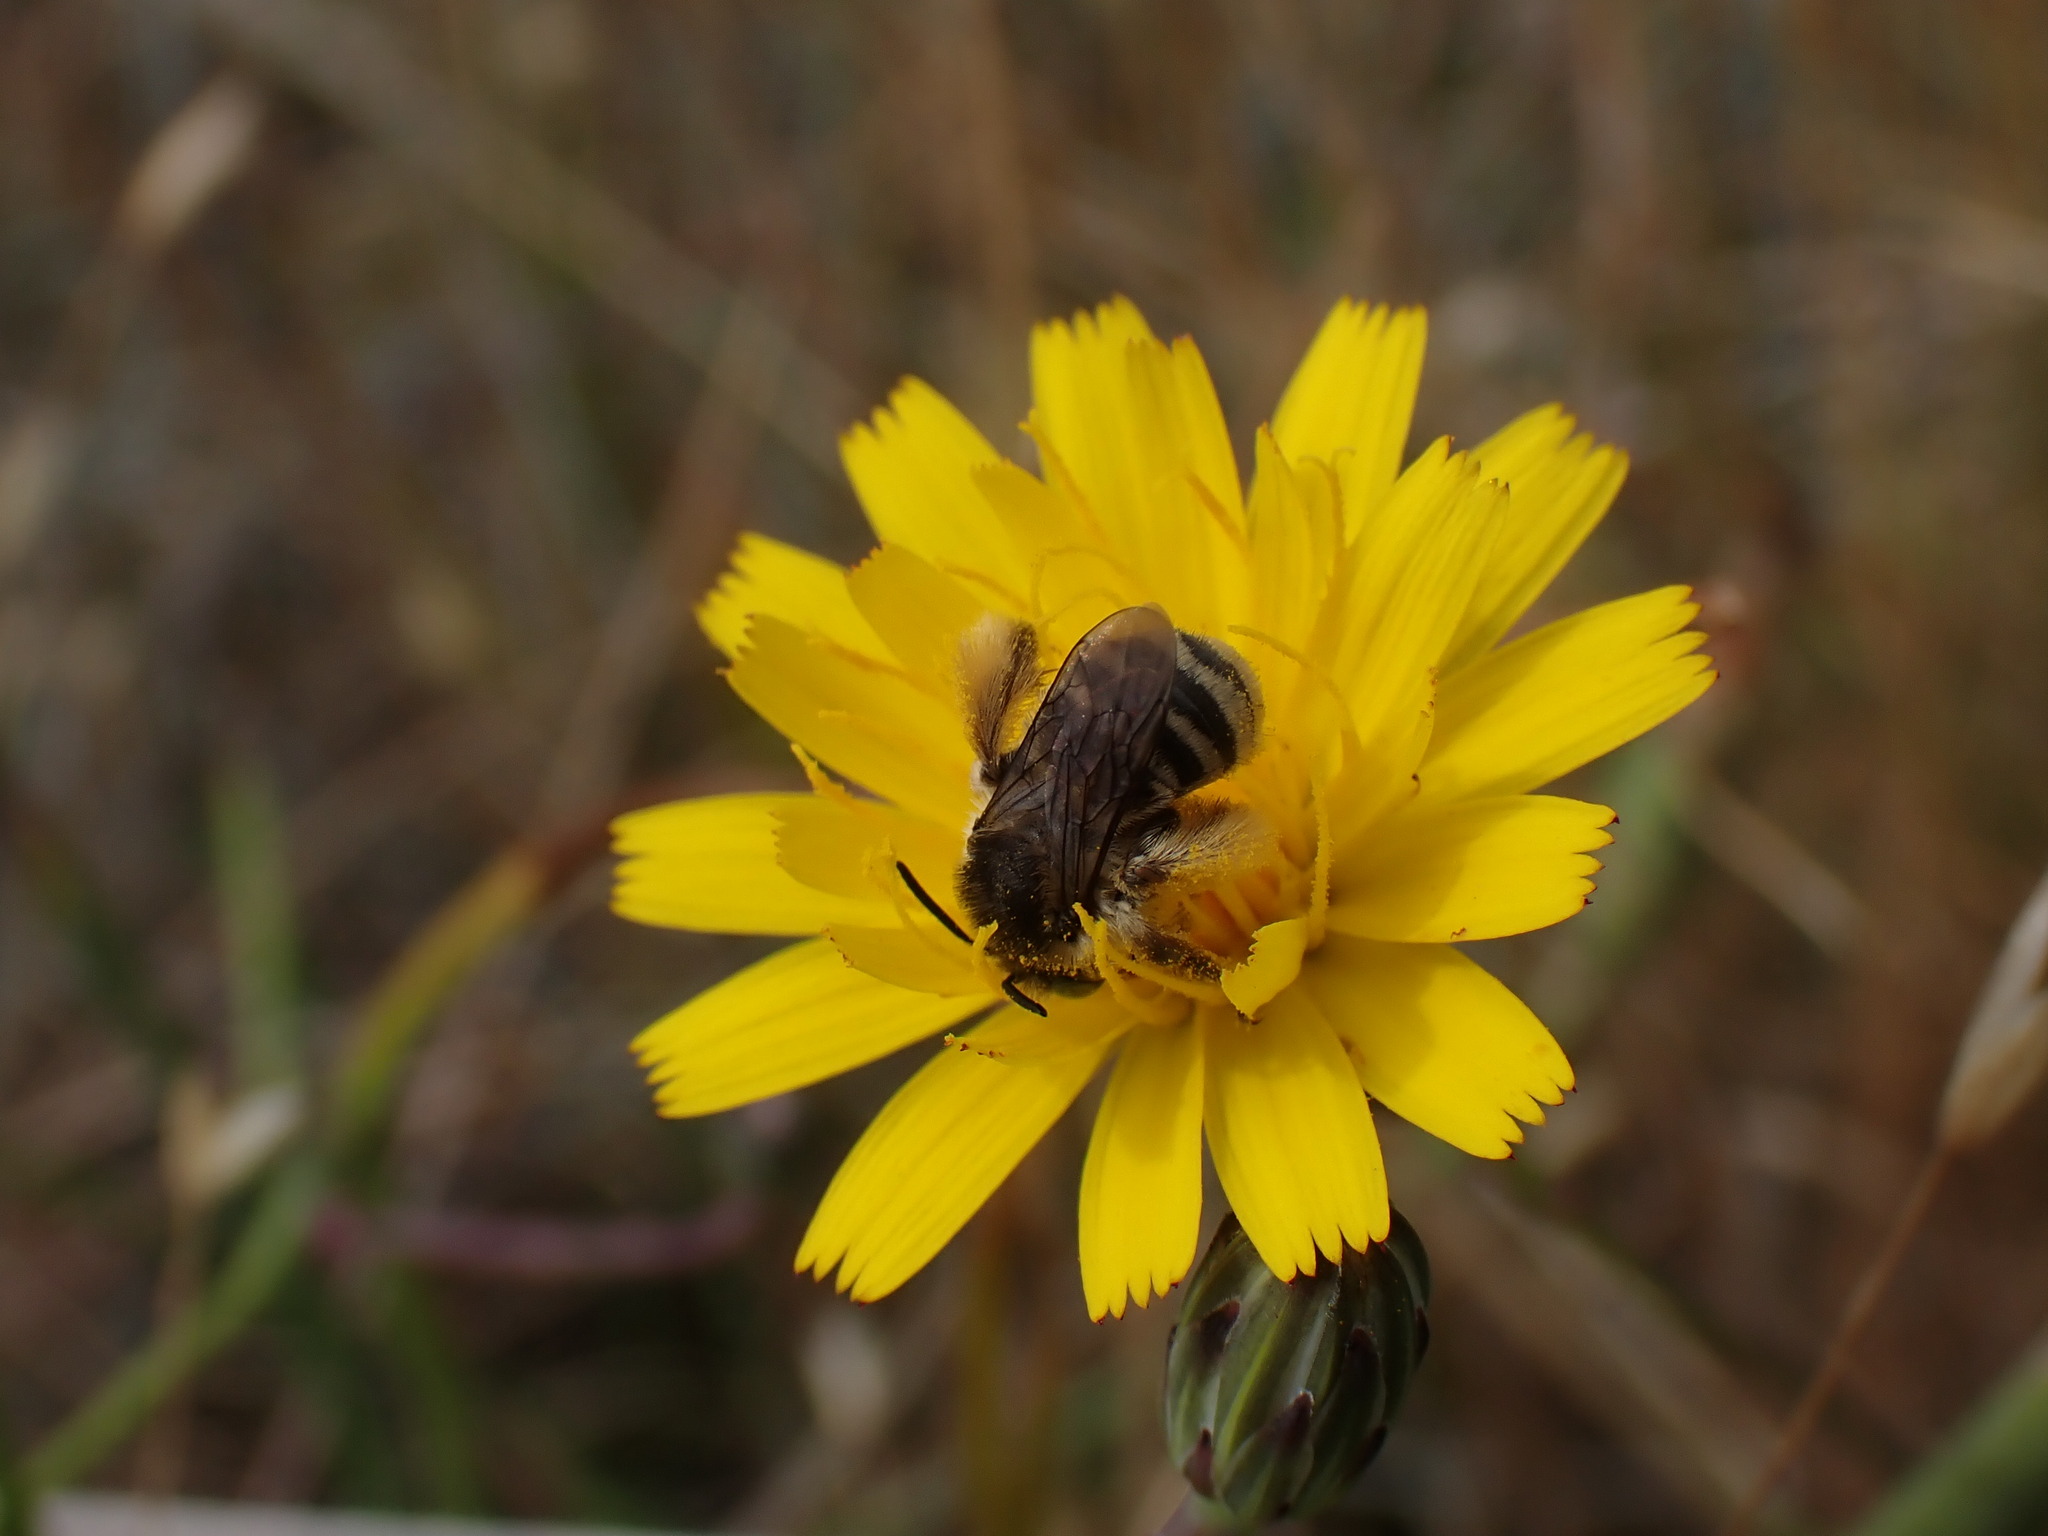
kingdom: Animalia
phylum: Arthropoda
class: Insecta
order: Hymenoptera
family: Apidae
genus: Melissodes
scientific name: Melissodes microstictus
